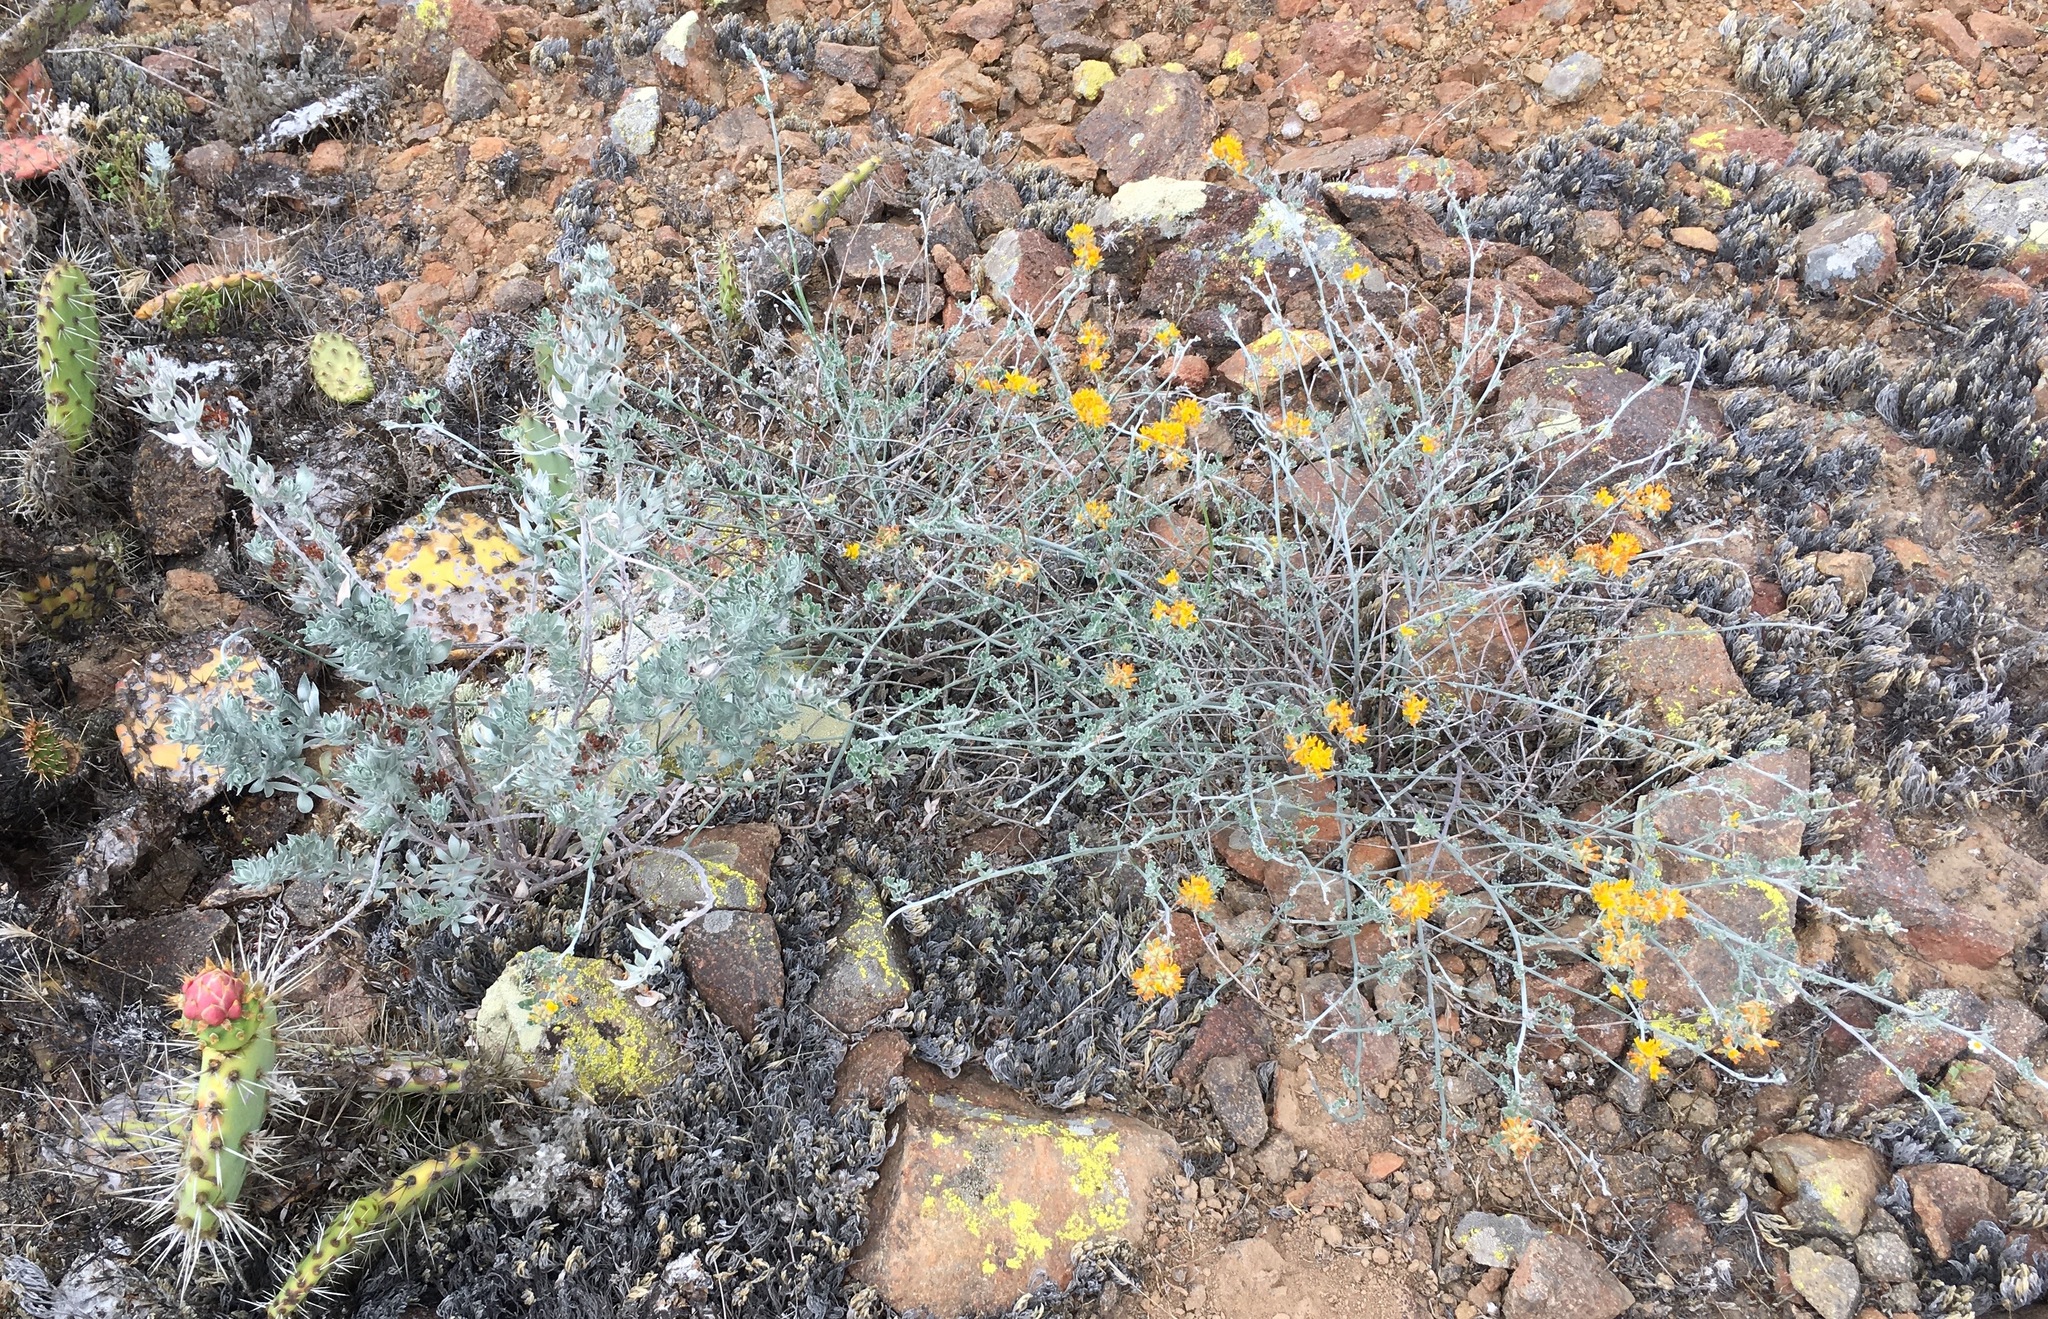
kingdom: Plantae
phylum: Tracheophyta
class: Magnoliopsida
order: Fabales
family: Fabaceae
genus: Acmispon
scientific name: Acmispon argophyllus
